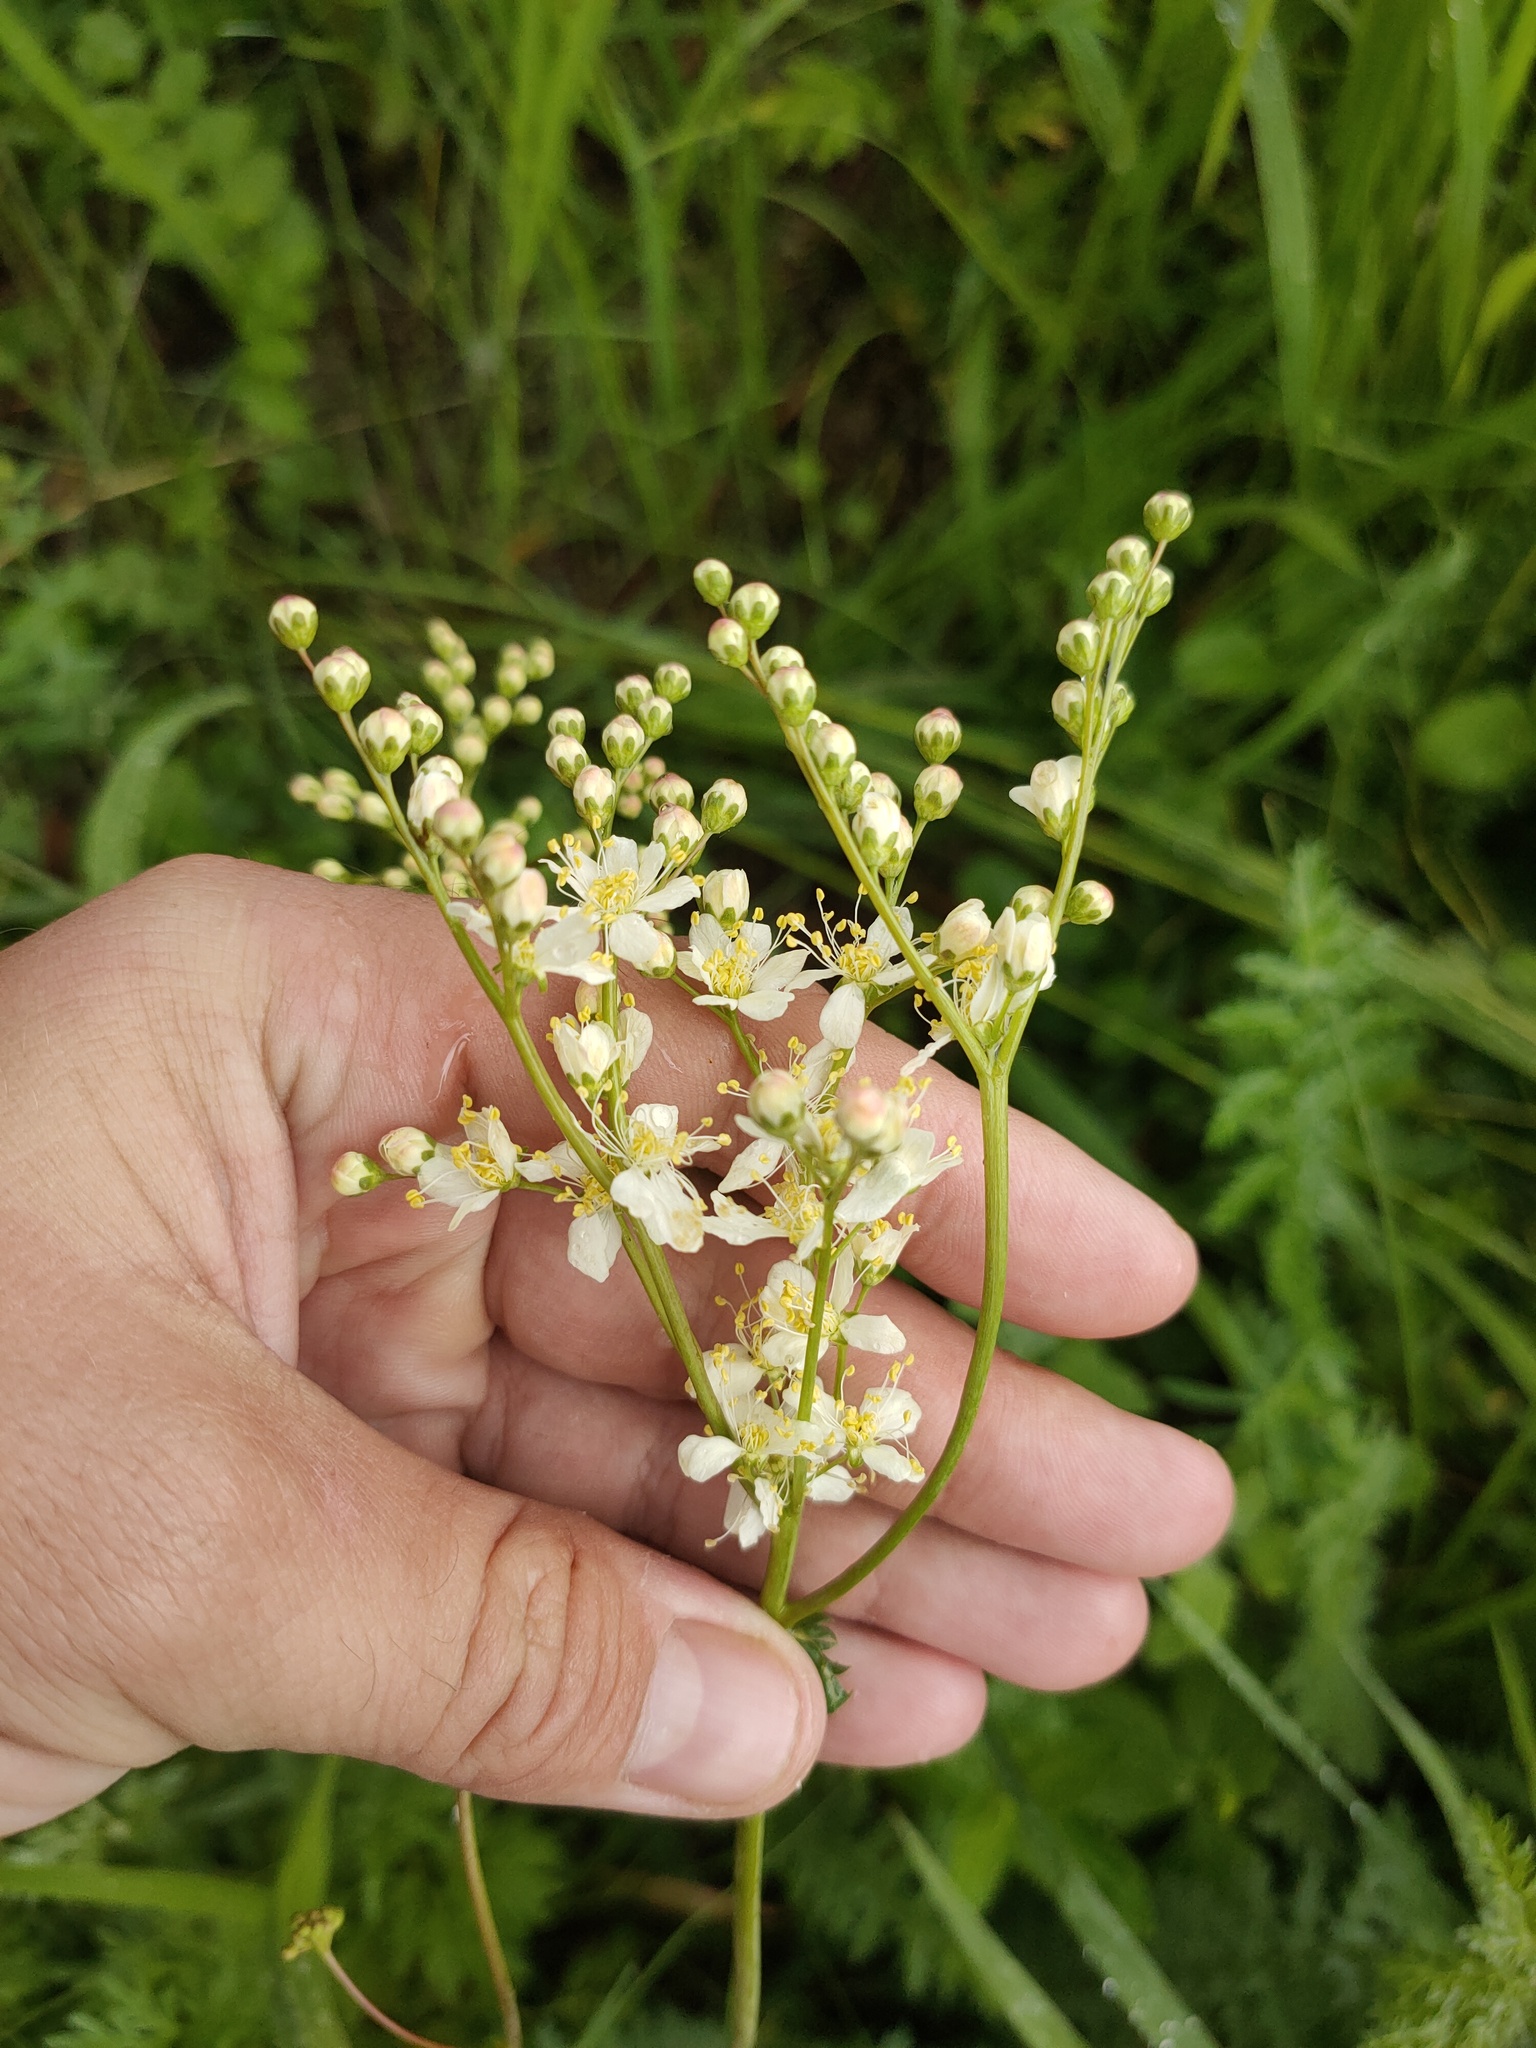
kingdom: Plantae
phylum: Tracheophyta
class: Magnoliopsida
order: Rosales
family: Rosaceae
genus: Filipendula
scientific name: Filipendula vulgaris
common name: Dropwort
